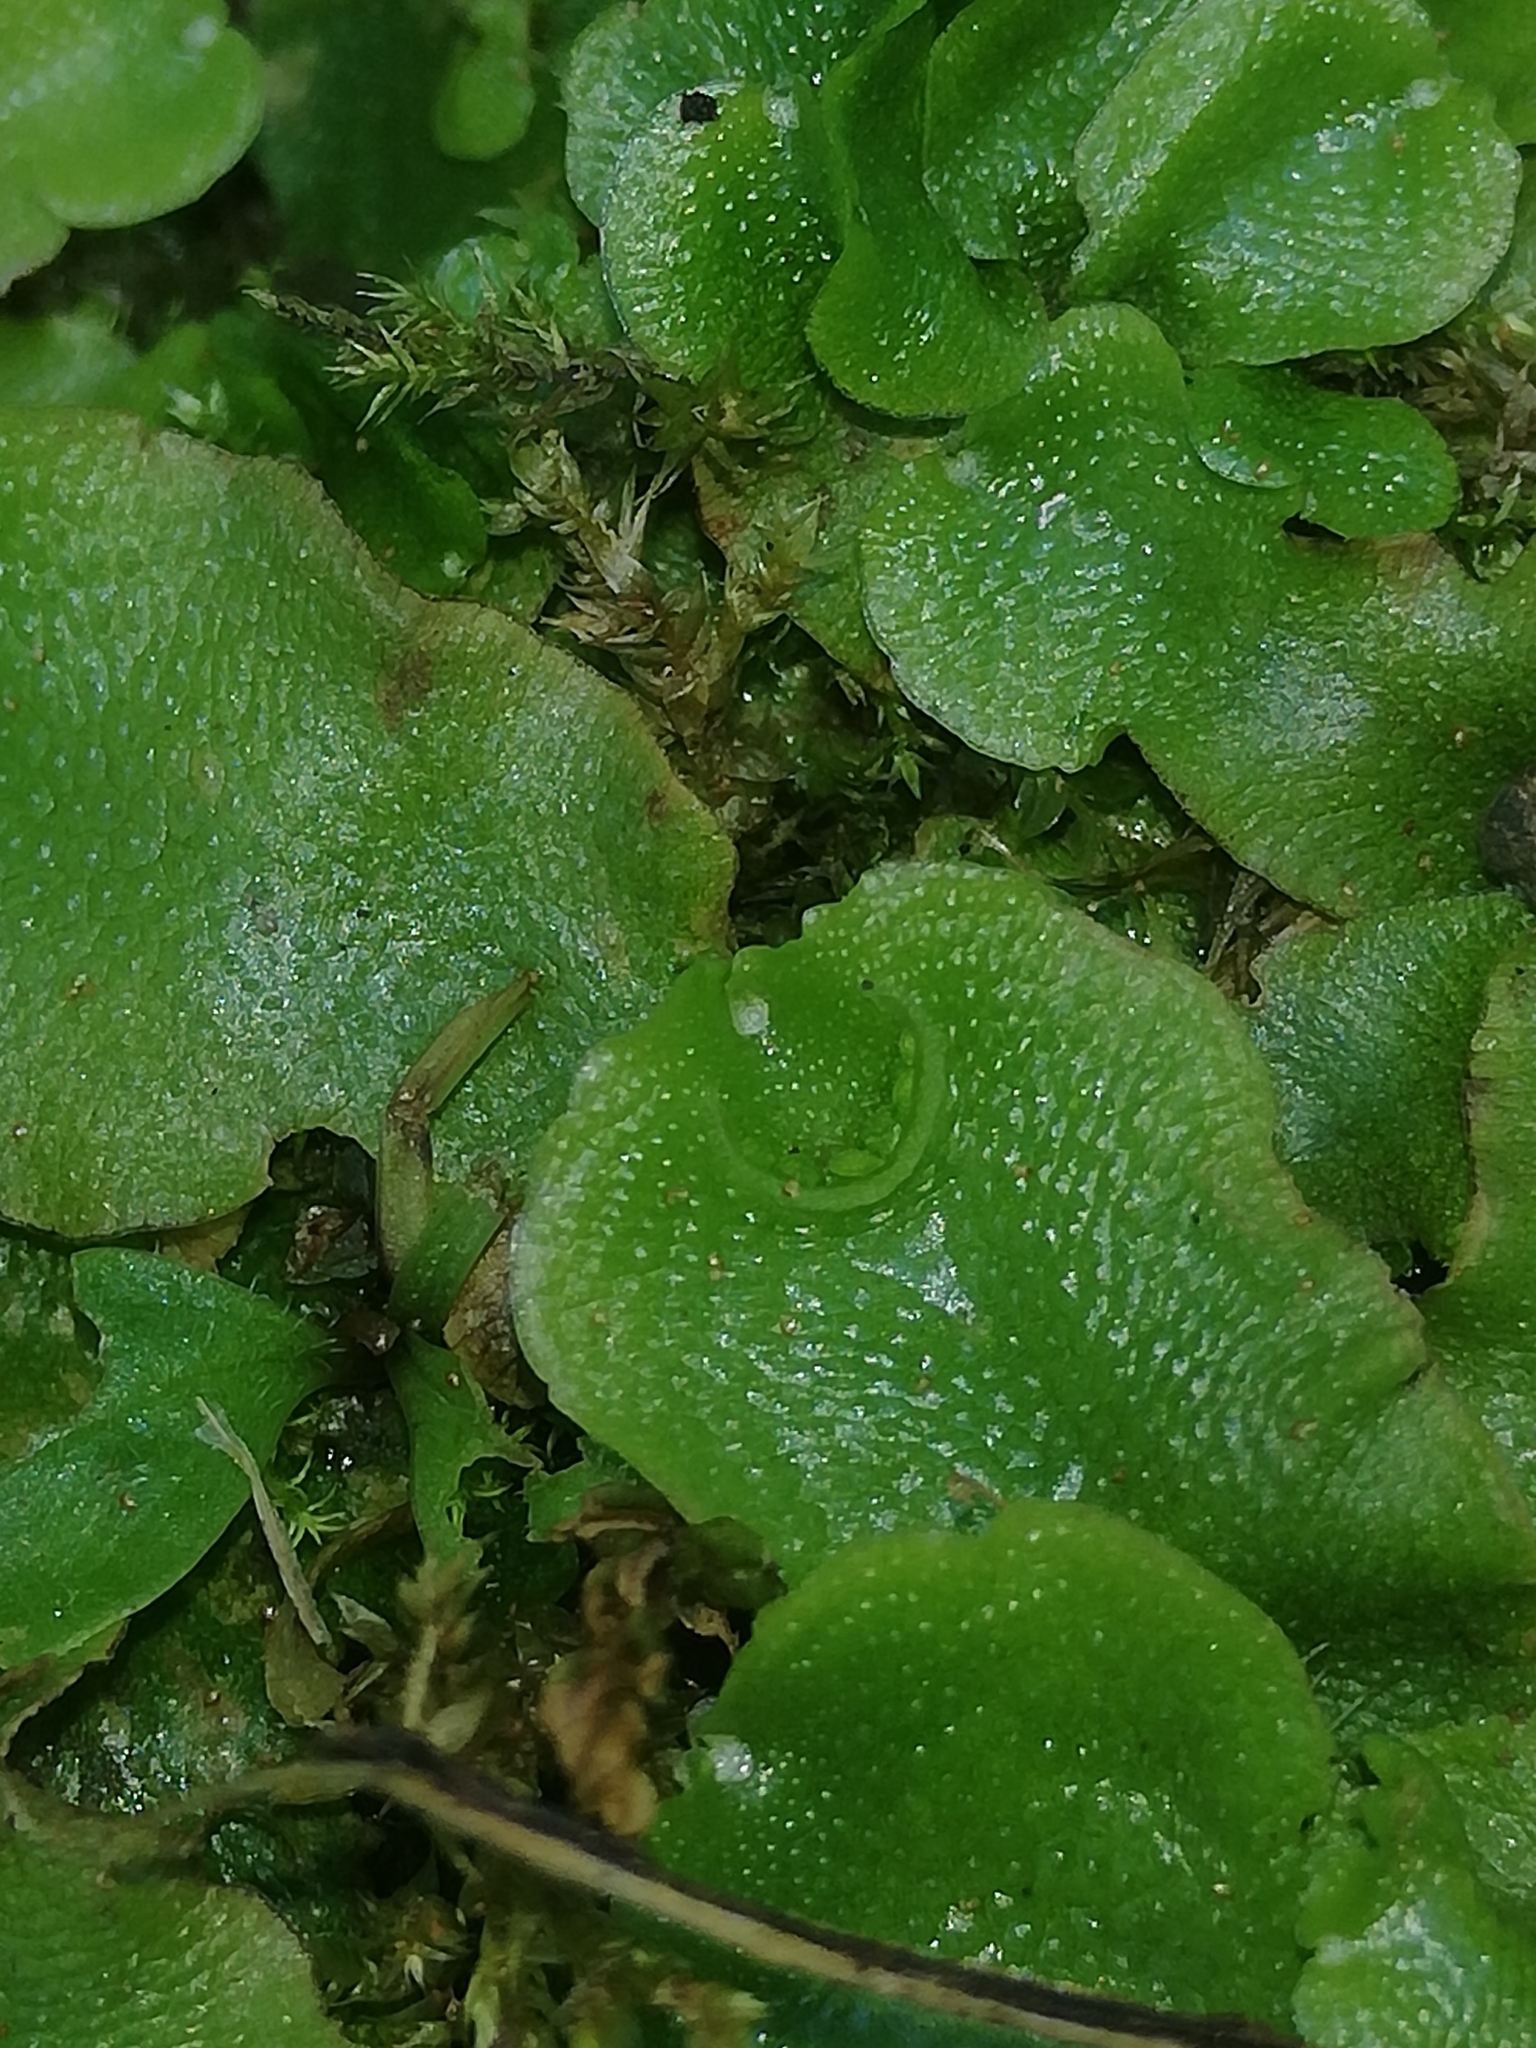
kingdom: Plantae
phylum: Marchantiophyta
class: Marchantiopsida
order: Lunulariales
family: Lunulariaceae
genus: Lunularia
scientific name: Lunularia cruciata
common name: Crescent-cup liverwort
